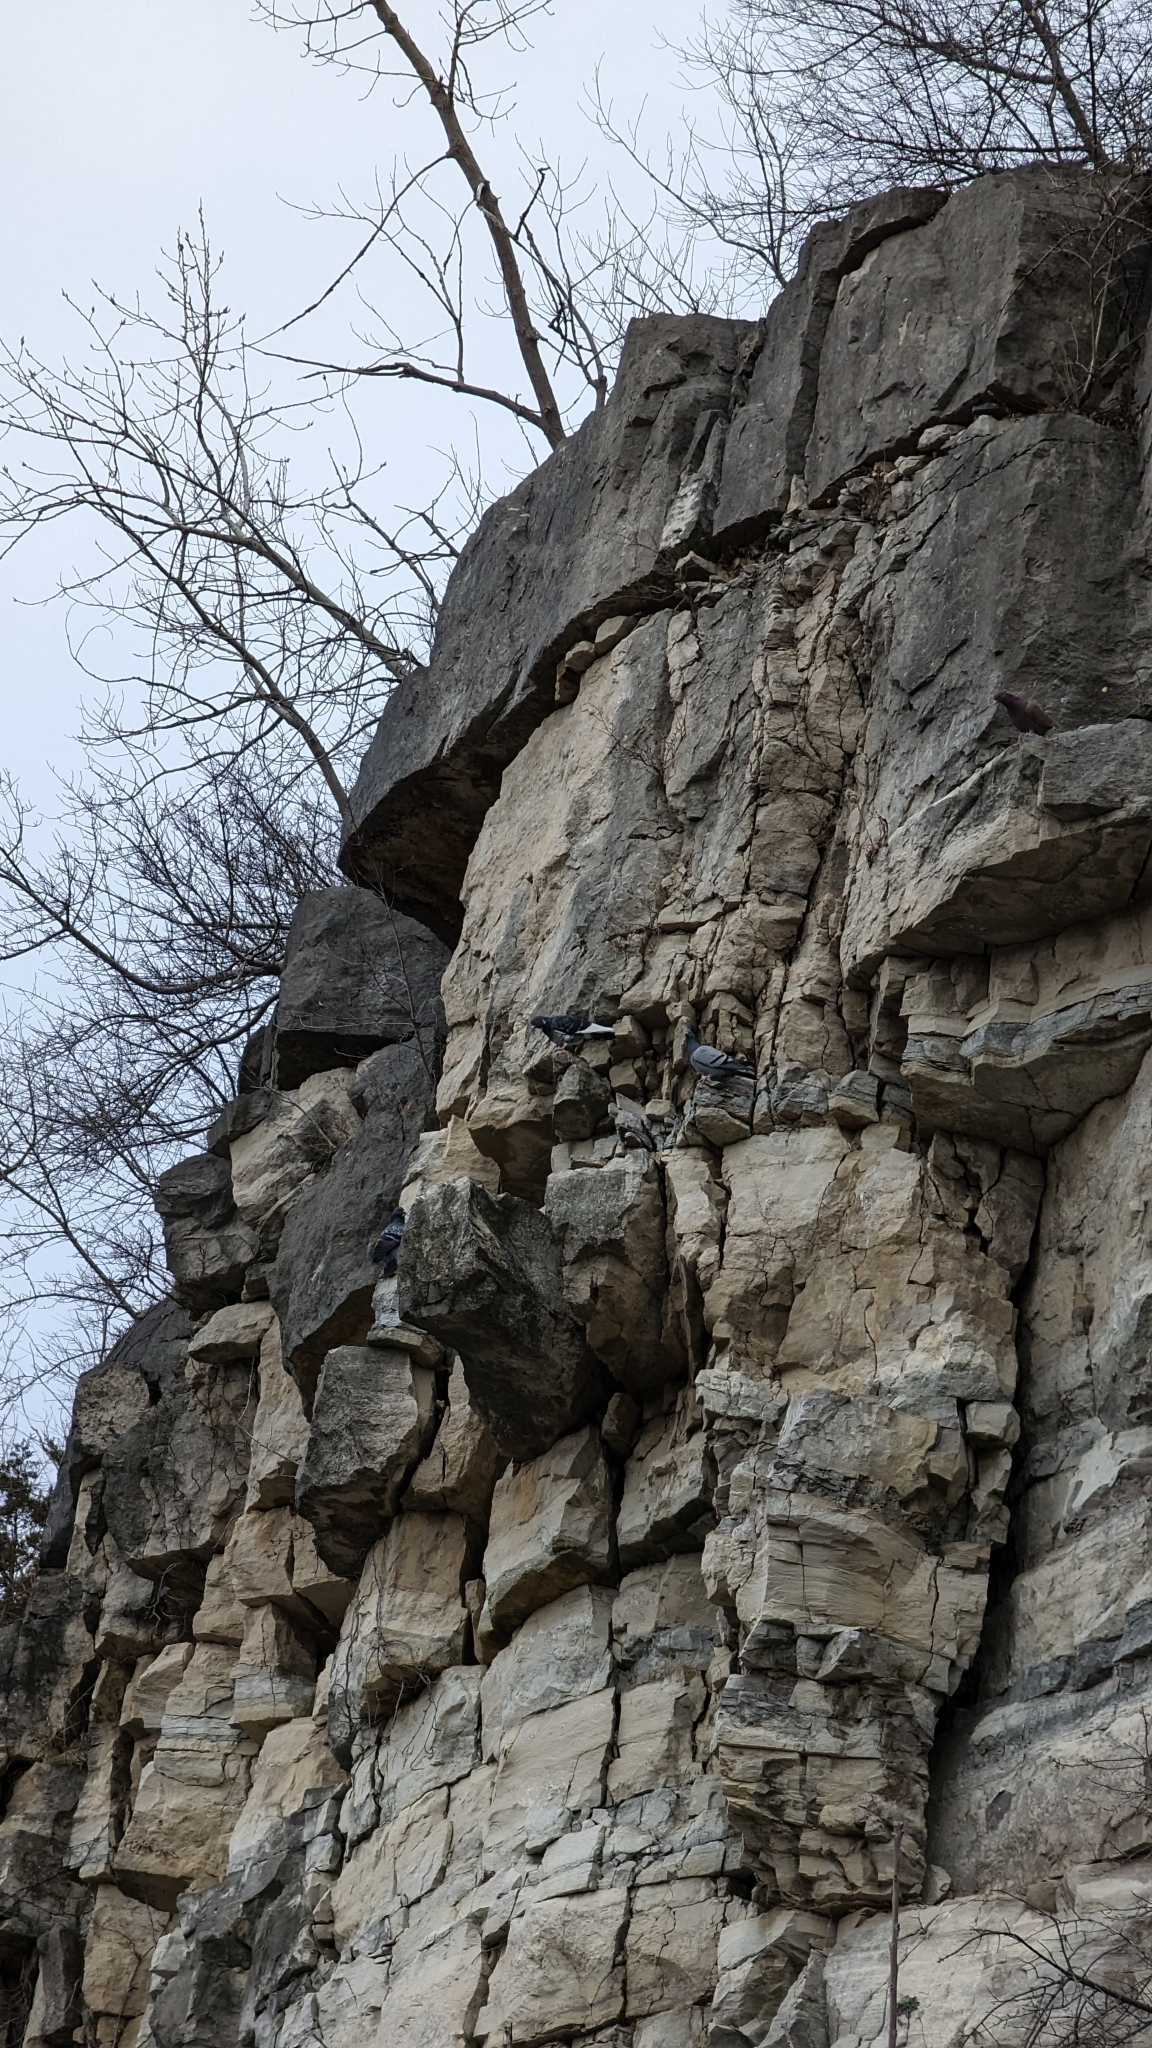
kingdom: Animalia
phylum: Chordata
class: Aves
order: Columbiformes
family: Columbidae
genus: Columba
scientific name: Columba livia
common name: Rock pigeon
